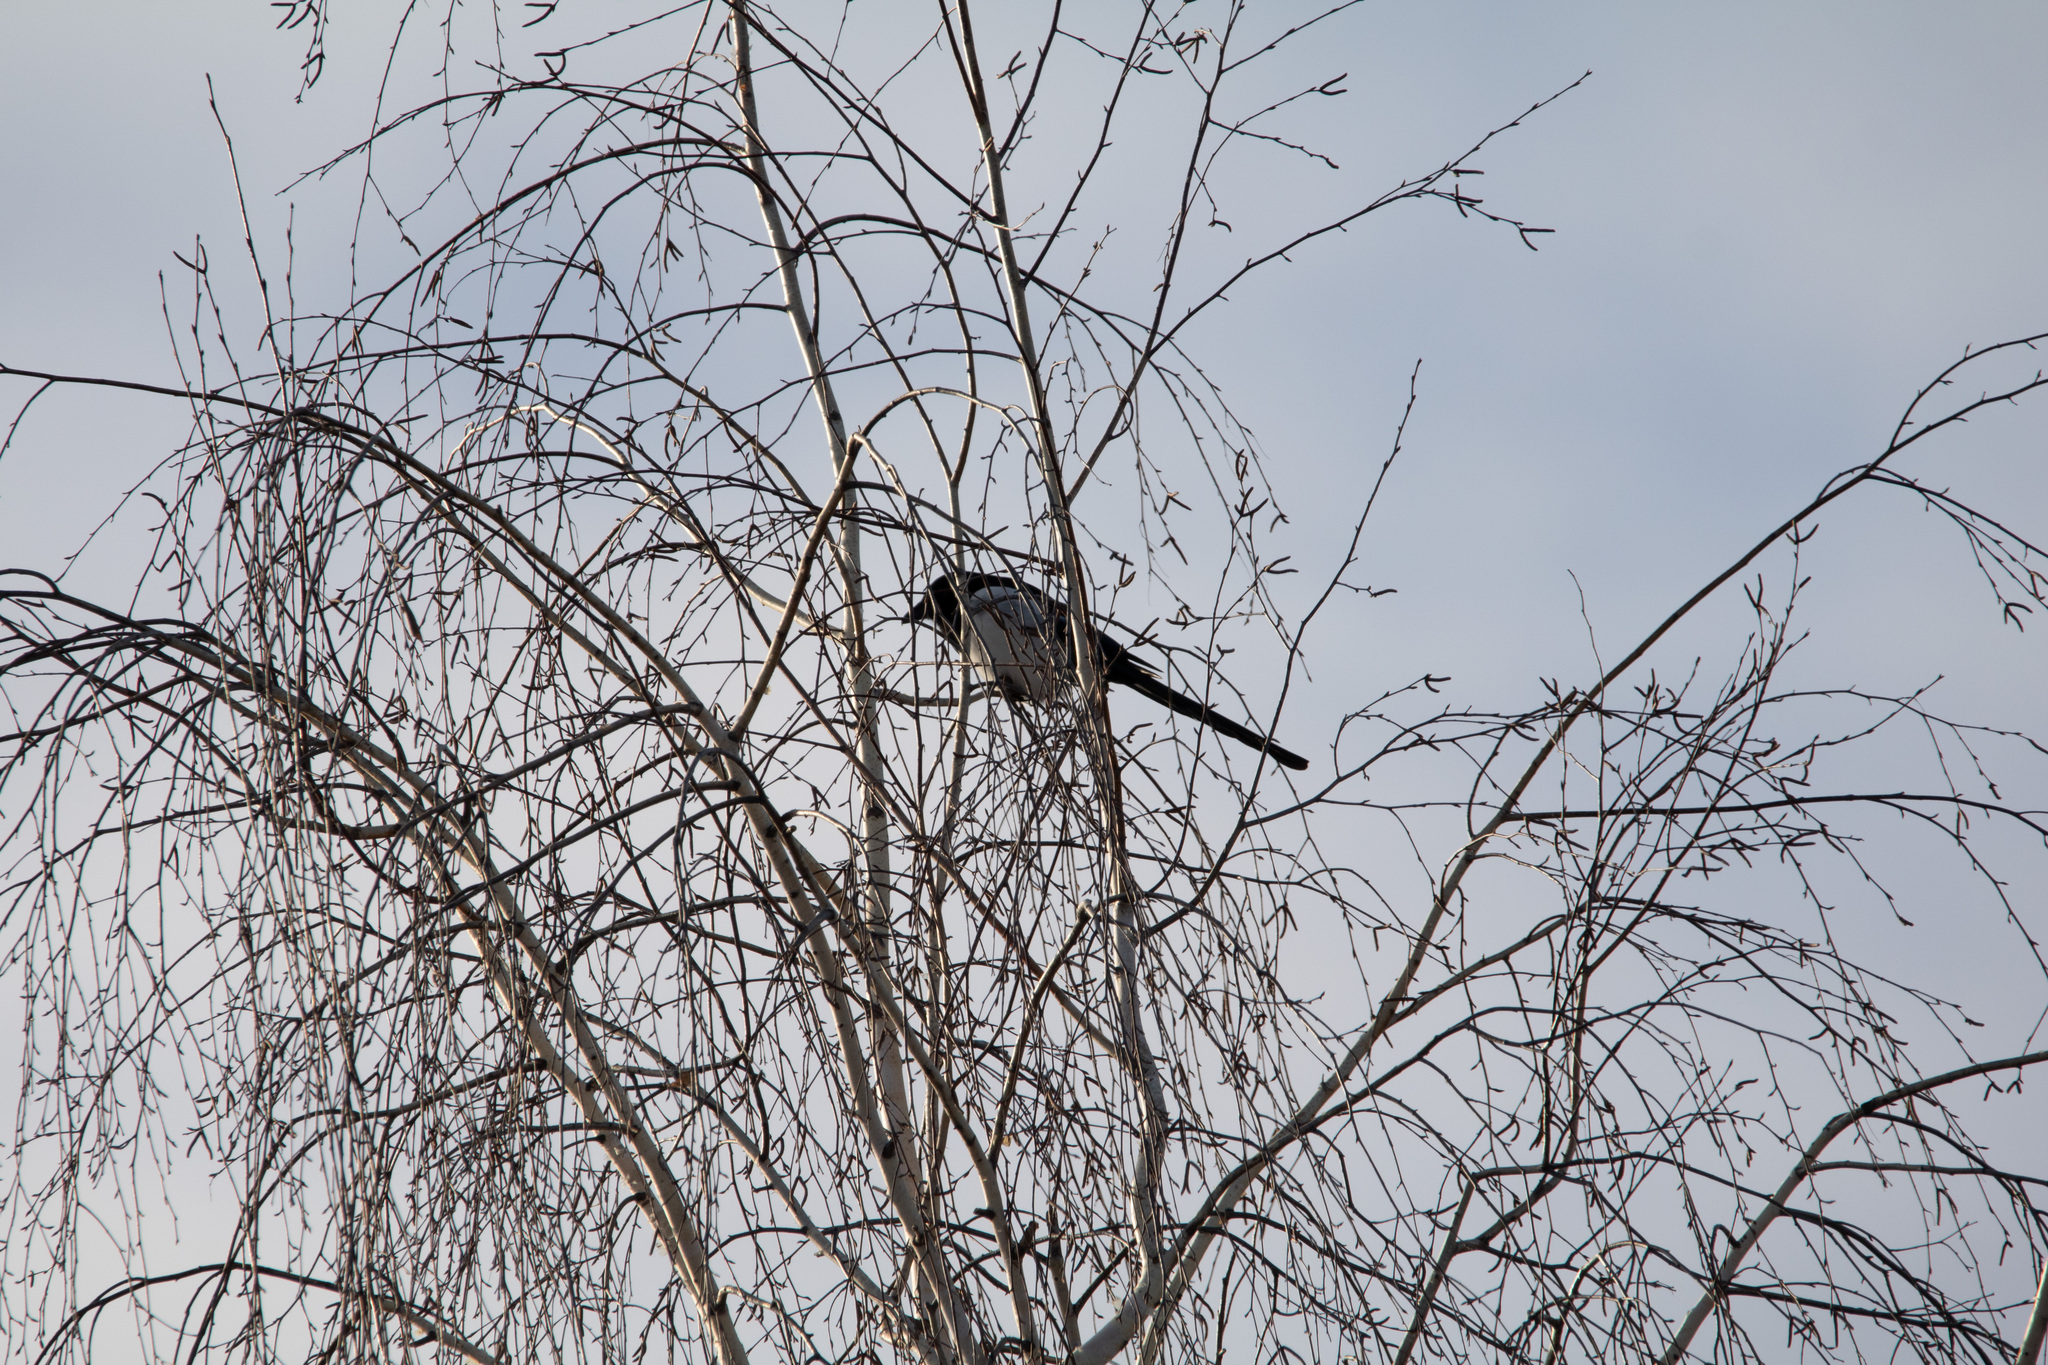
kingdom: Animalia
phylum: Chordata
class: Aves
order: Passeriformes
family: Corvidae
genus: Pica
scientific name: Pica pica
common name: Eurasian magpie
